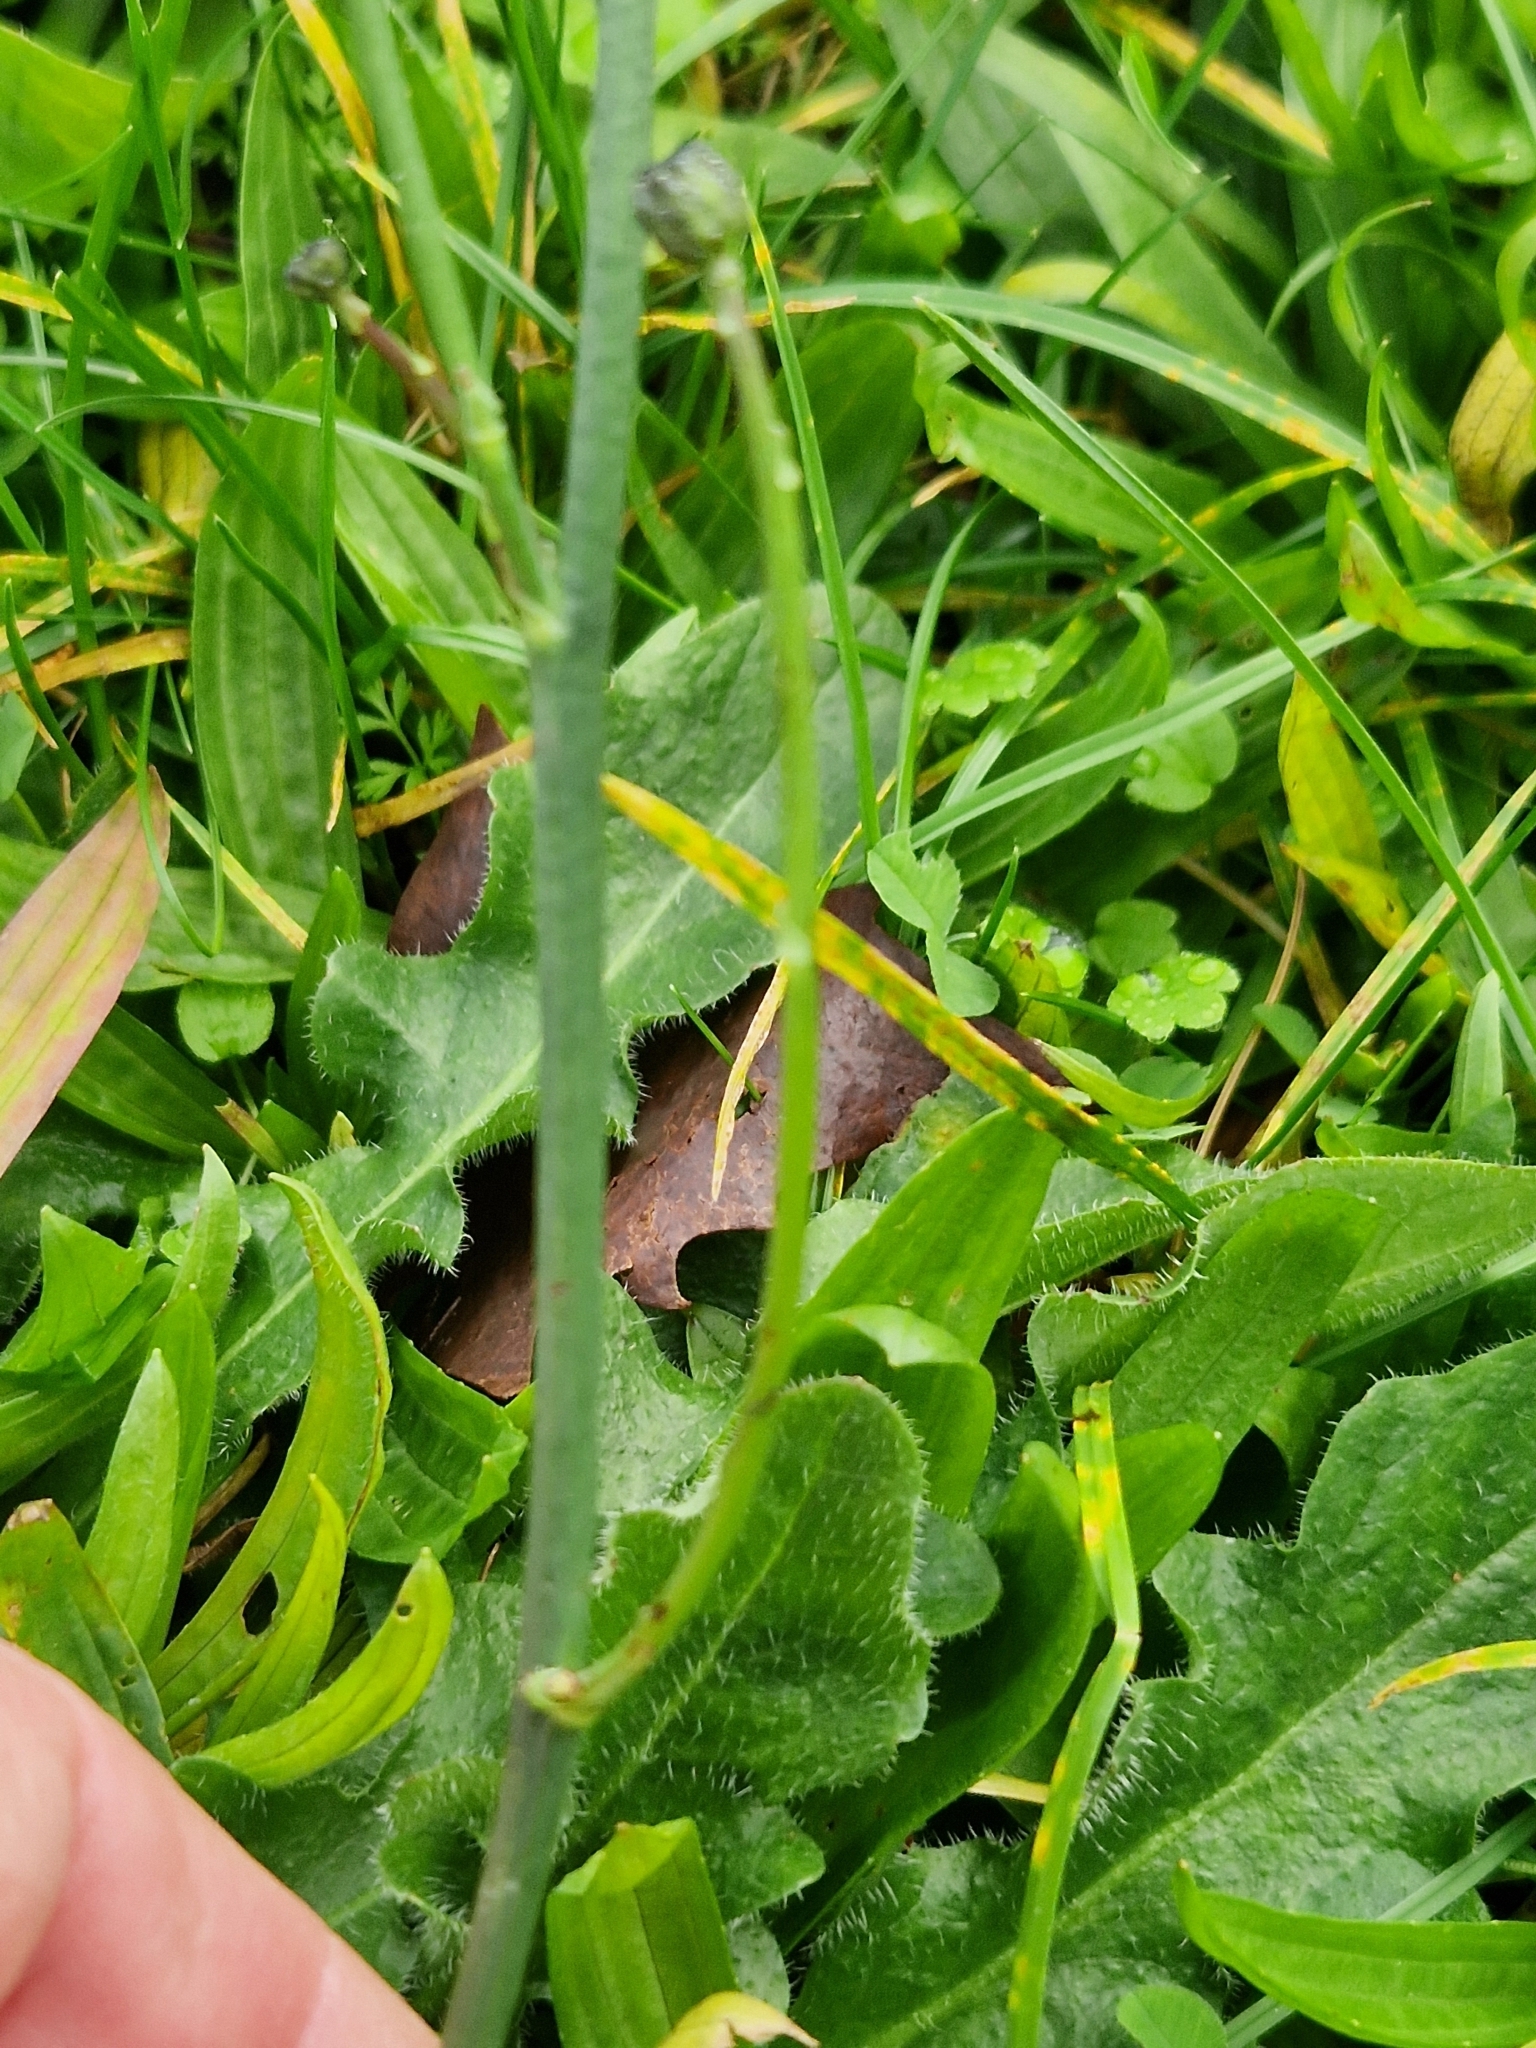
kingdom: Plantae
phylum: Tracheophyta
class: Magnoliopsida
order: Asterales
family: Asteraceae
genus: Hypochaeris
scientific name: Hypochaeris radicata
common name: Flatweed
